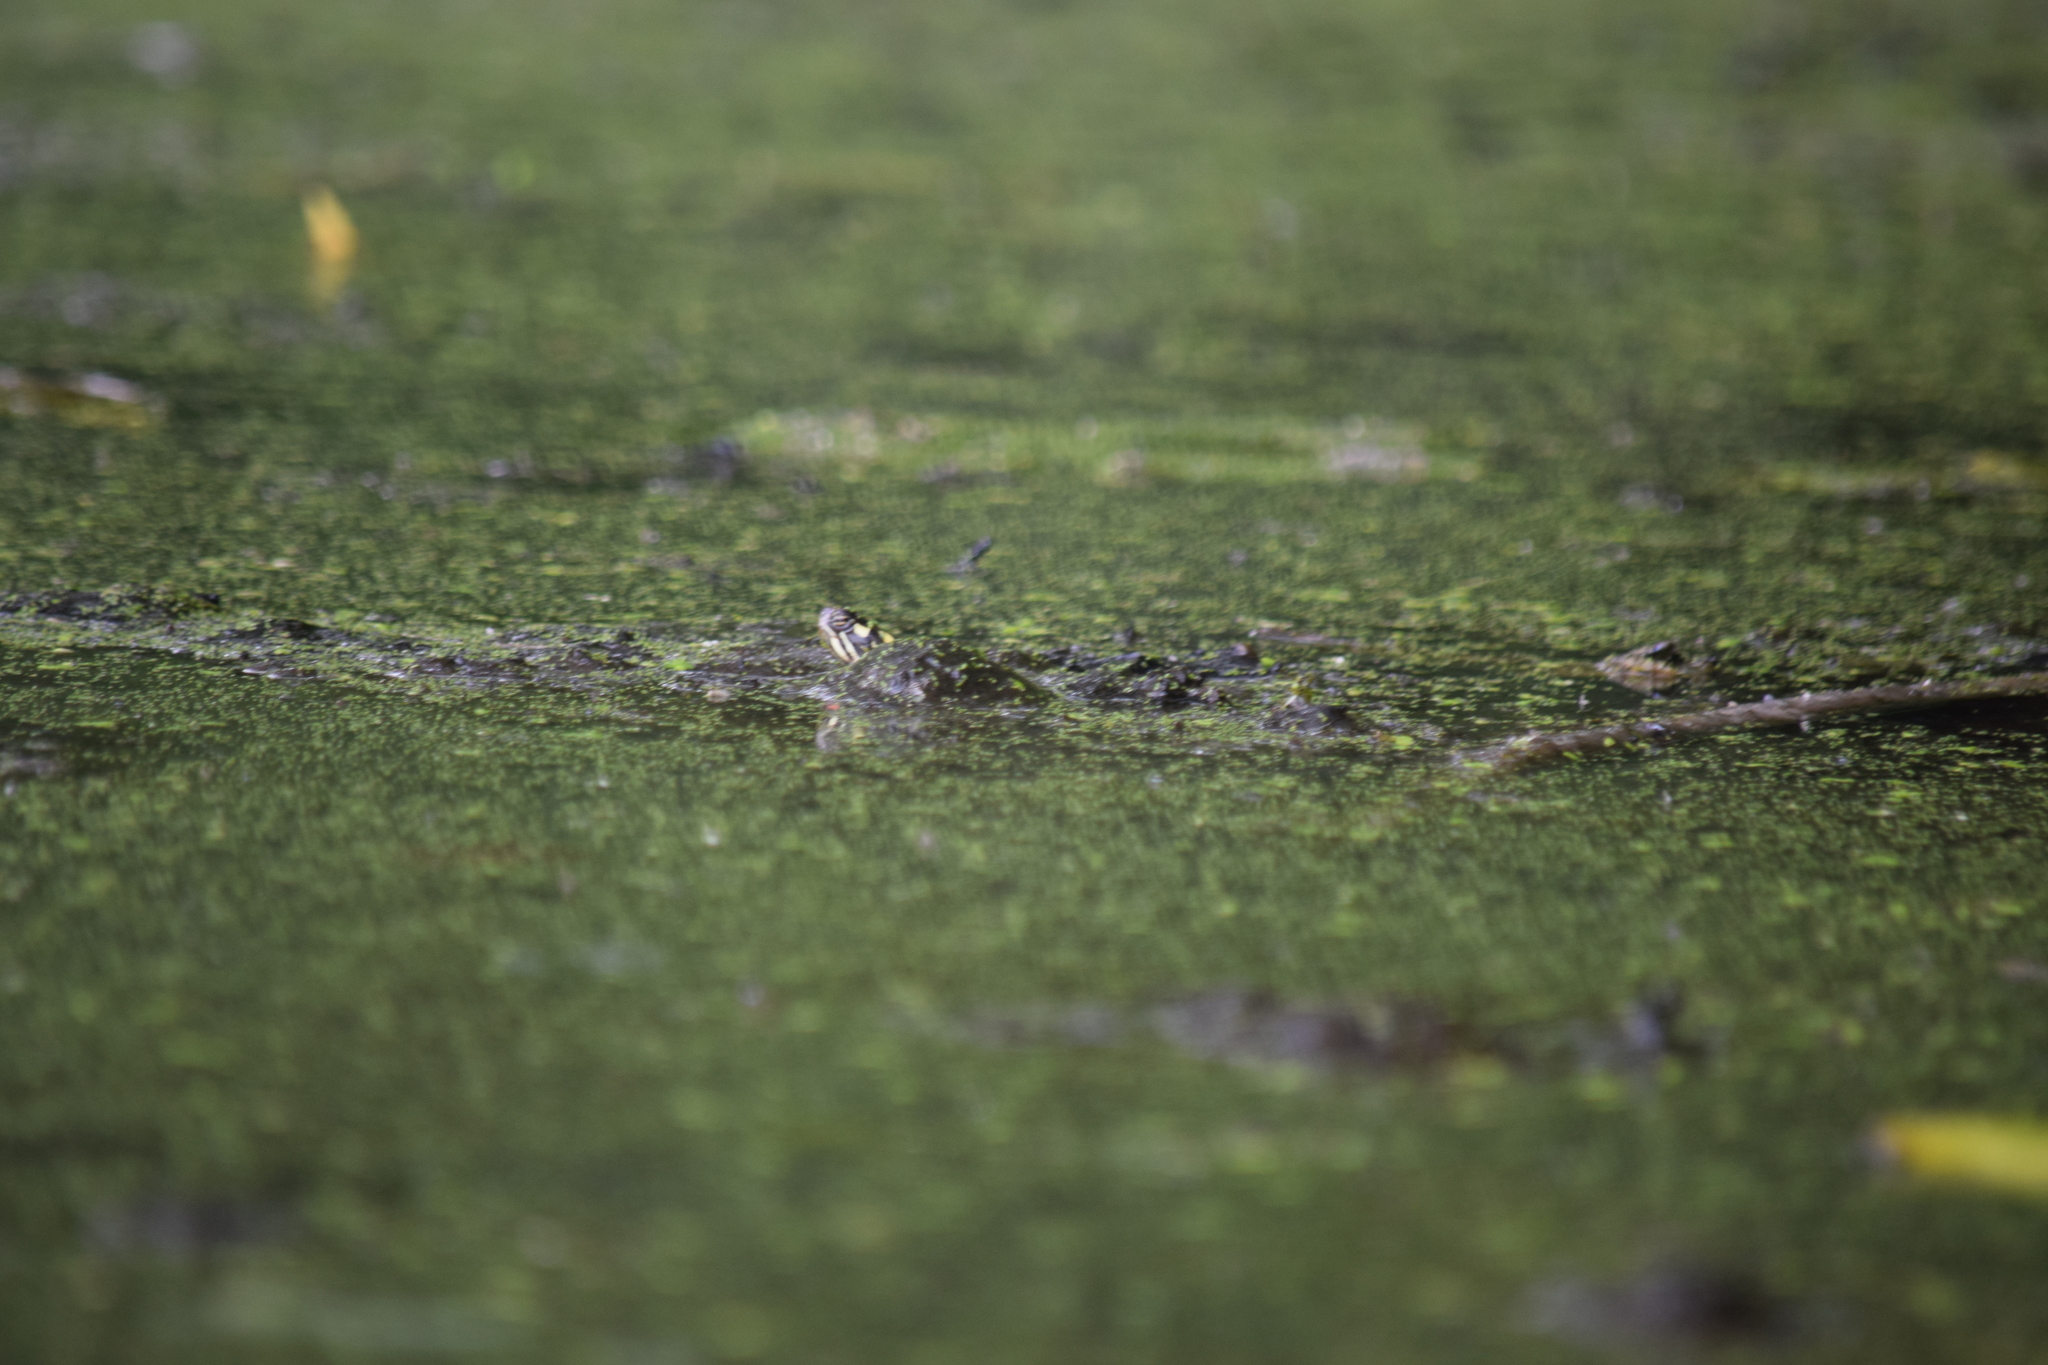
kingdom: Animalia
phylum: Chordata
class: Testudines
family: Emydidae
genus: Chrysemys
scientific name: Chrysemys picta
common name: Painted turtle
